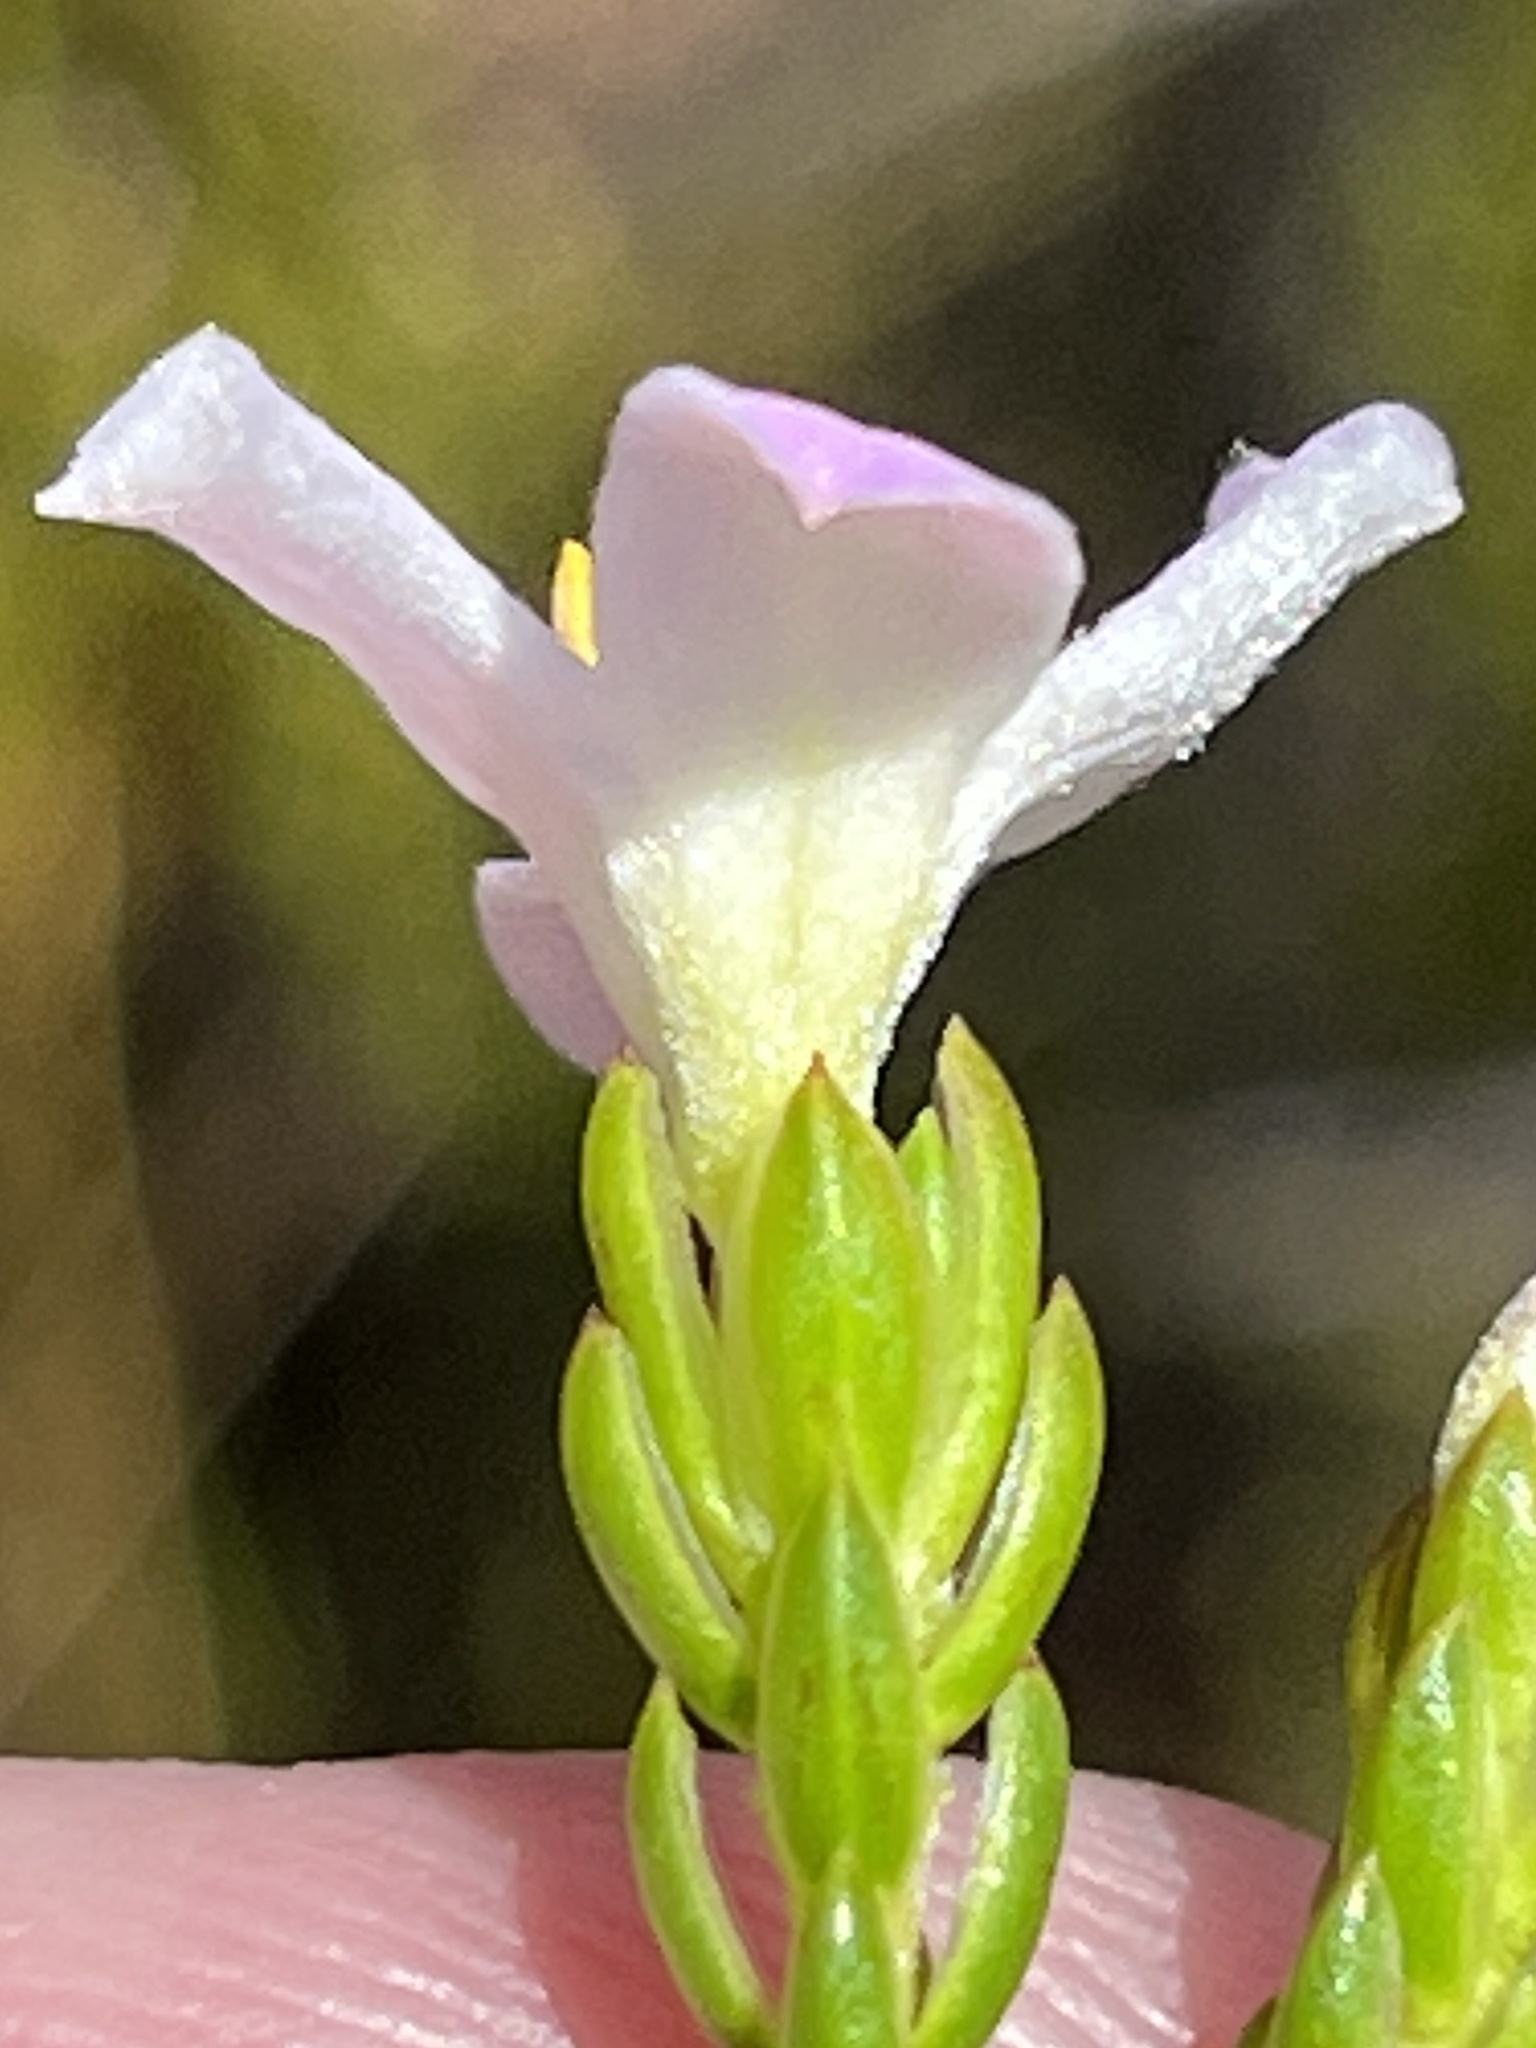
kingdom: Plantae
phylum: Tracheophyta
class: Magnoliopsida
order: Malvales
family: Thymelaeaceae
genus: Lachnaea
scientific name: Lachnaea grandiflora
